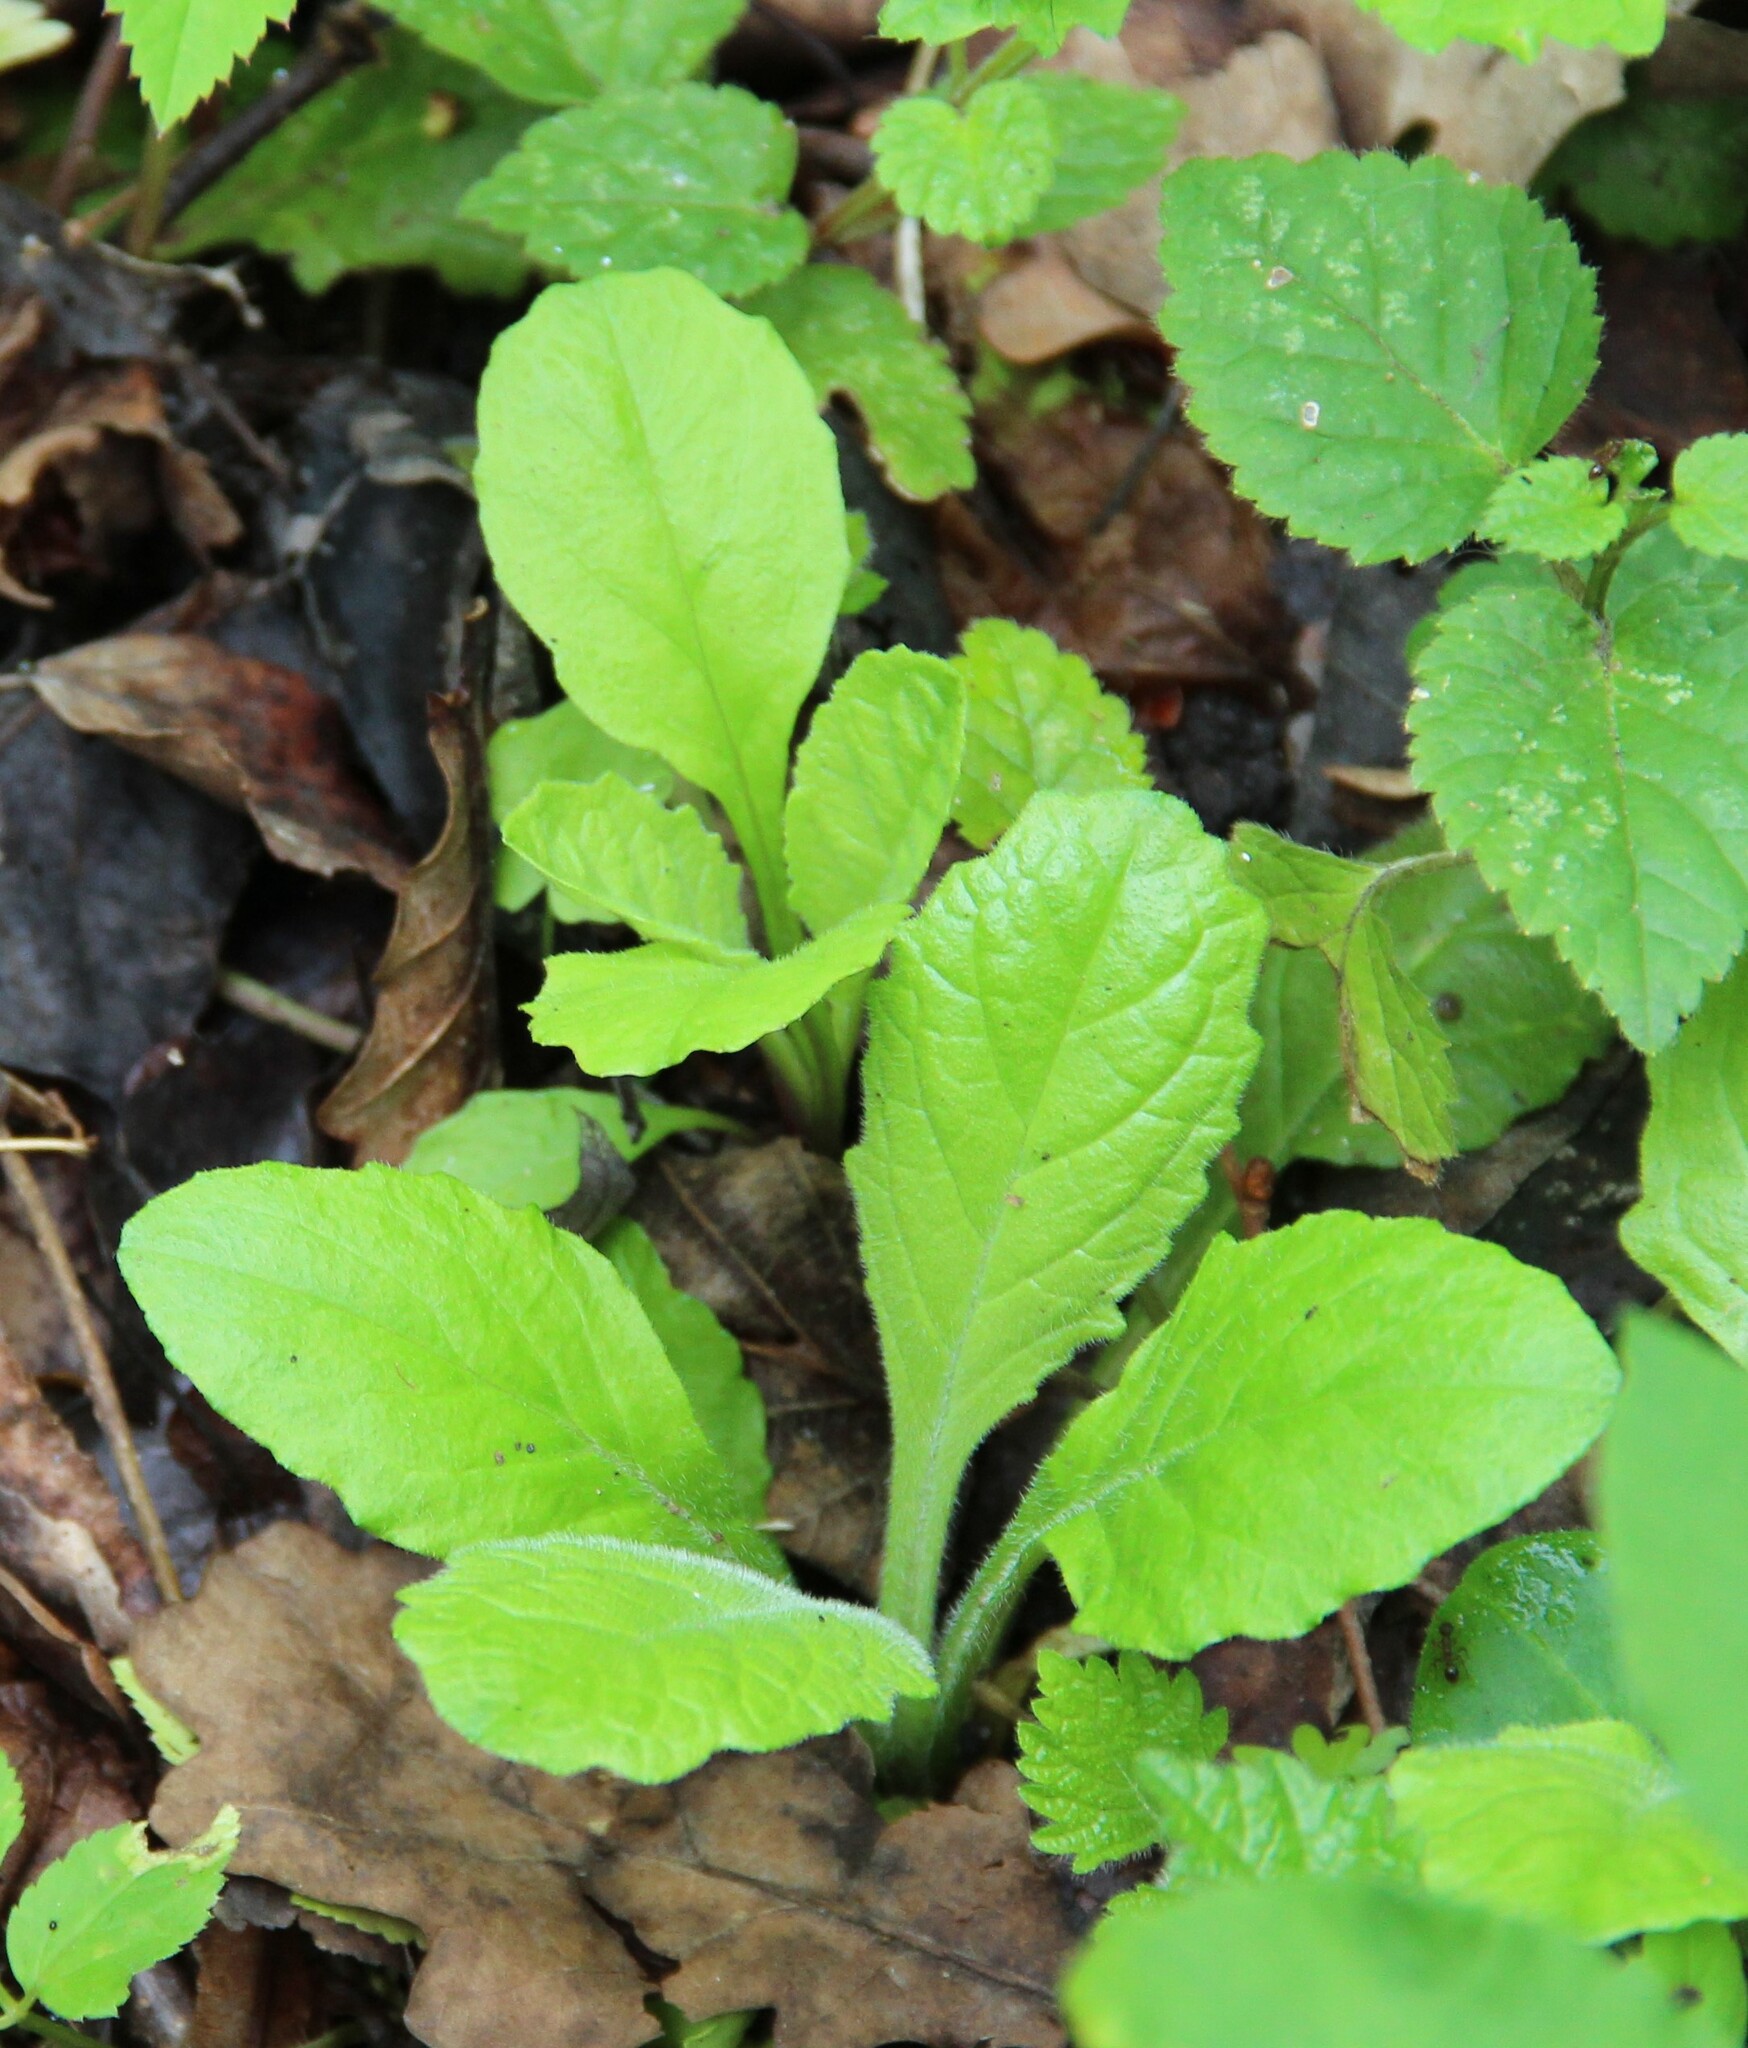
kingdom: Plantae
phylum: Tracheophyta
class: Magnoliopsida
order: Lamiales
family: Lamiaceae
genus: Ajuga
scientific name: Ajuga reptans
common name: Bugle
